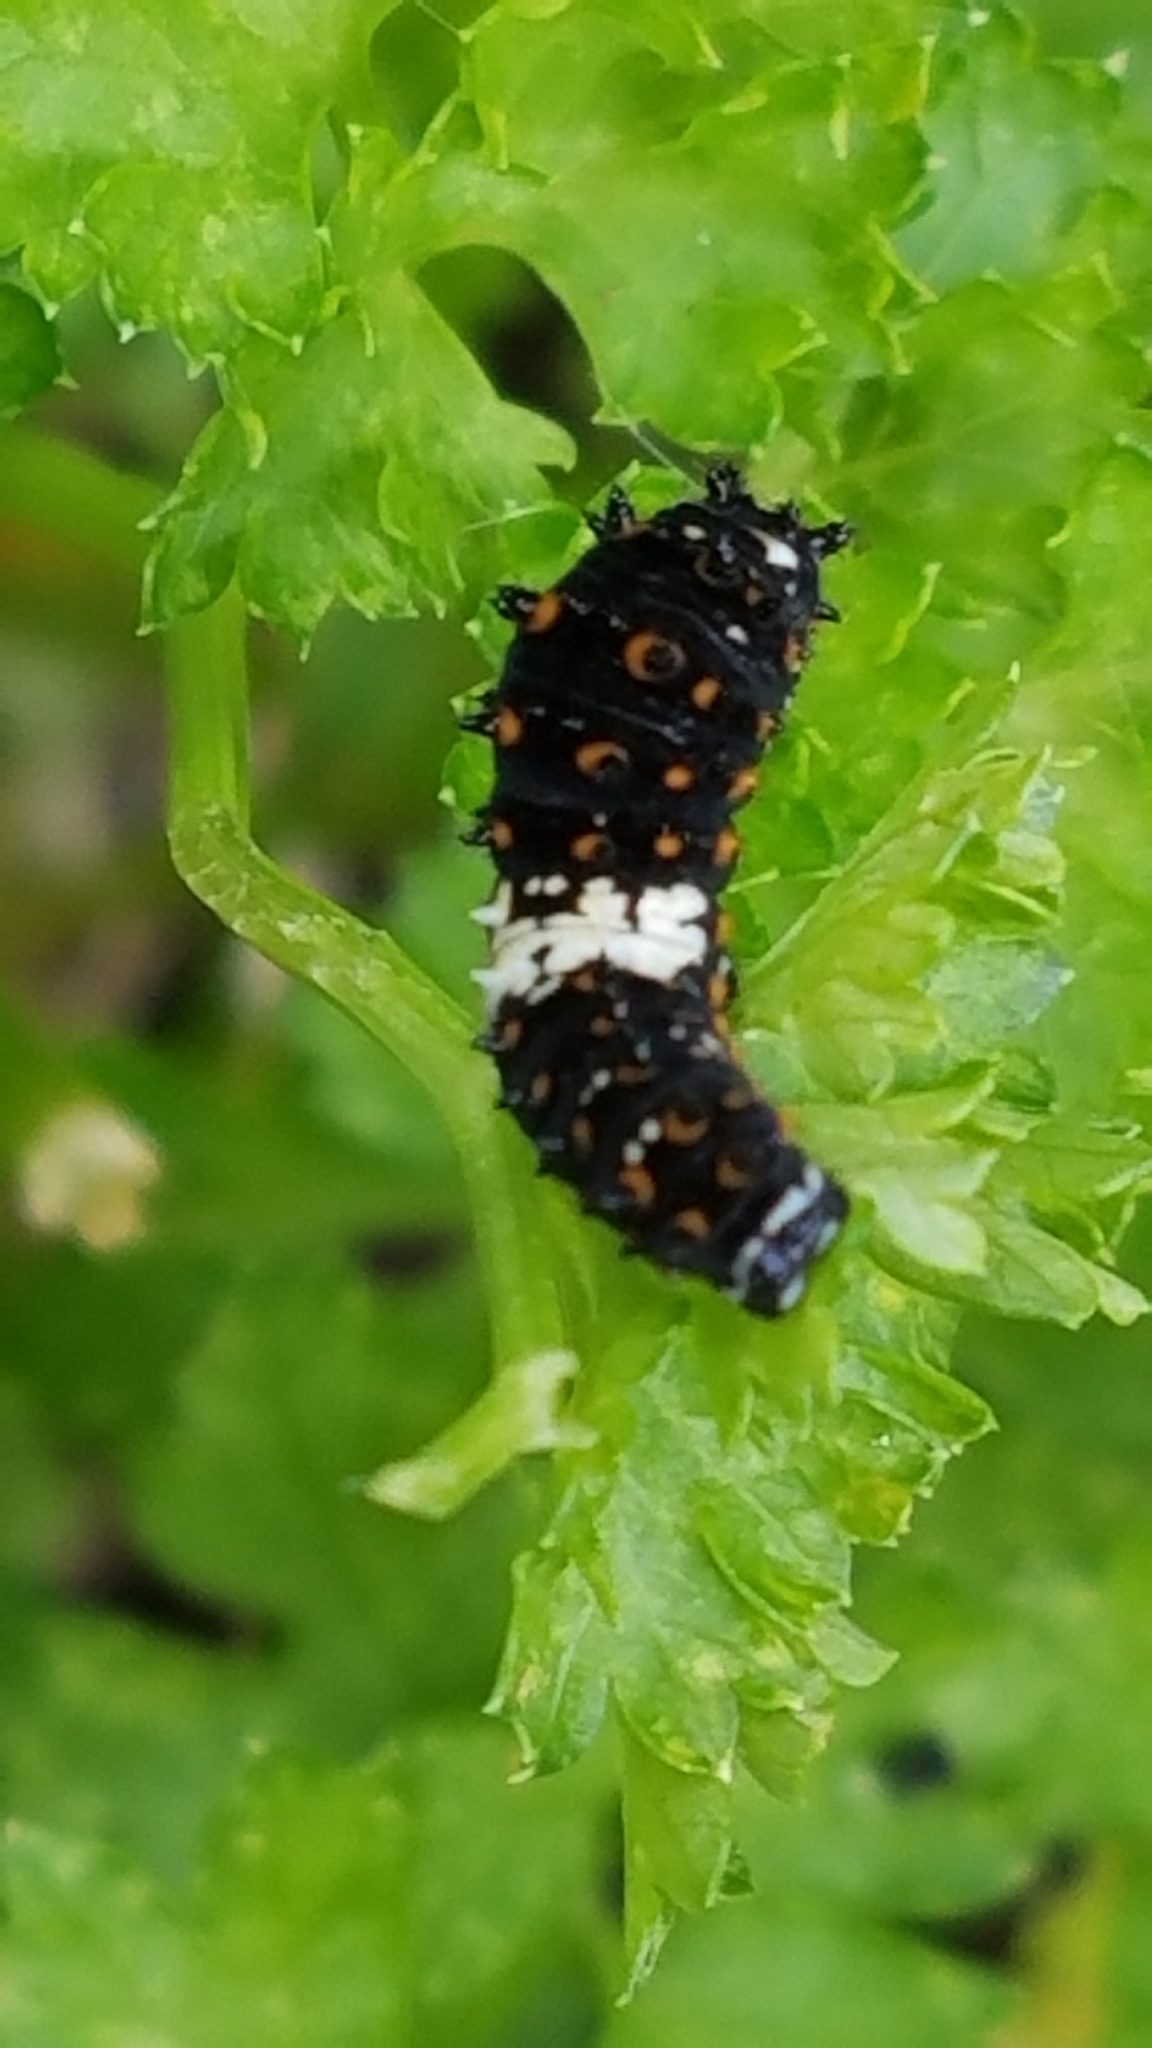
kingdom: Animalia
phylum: Arthropoda
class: Insecta
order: Lepidoptera
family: Papilionidae
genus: Papilio
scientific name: Papilio polyxenes
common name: Black swallowtail
